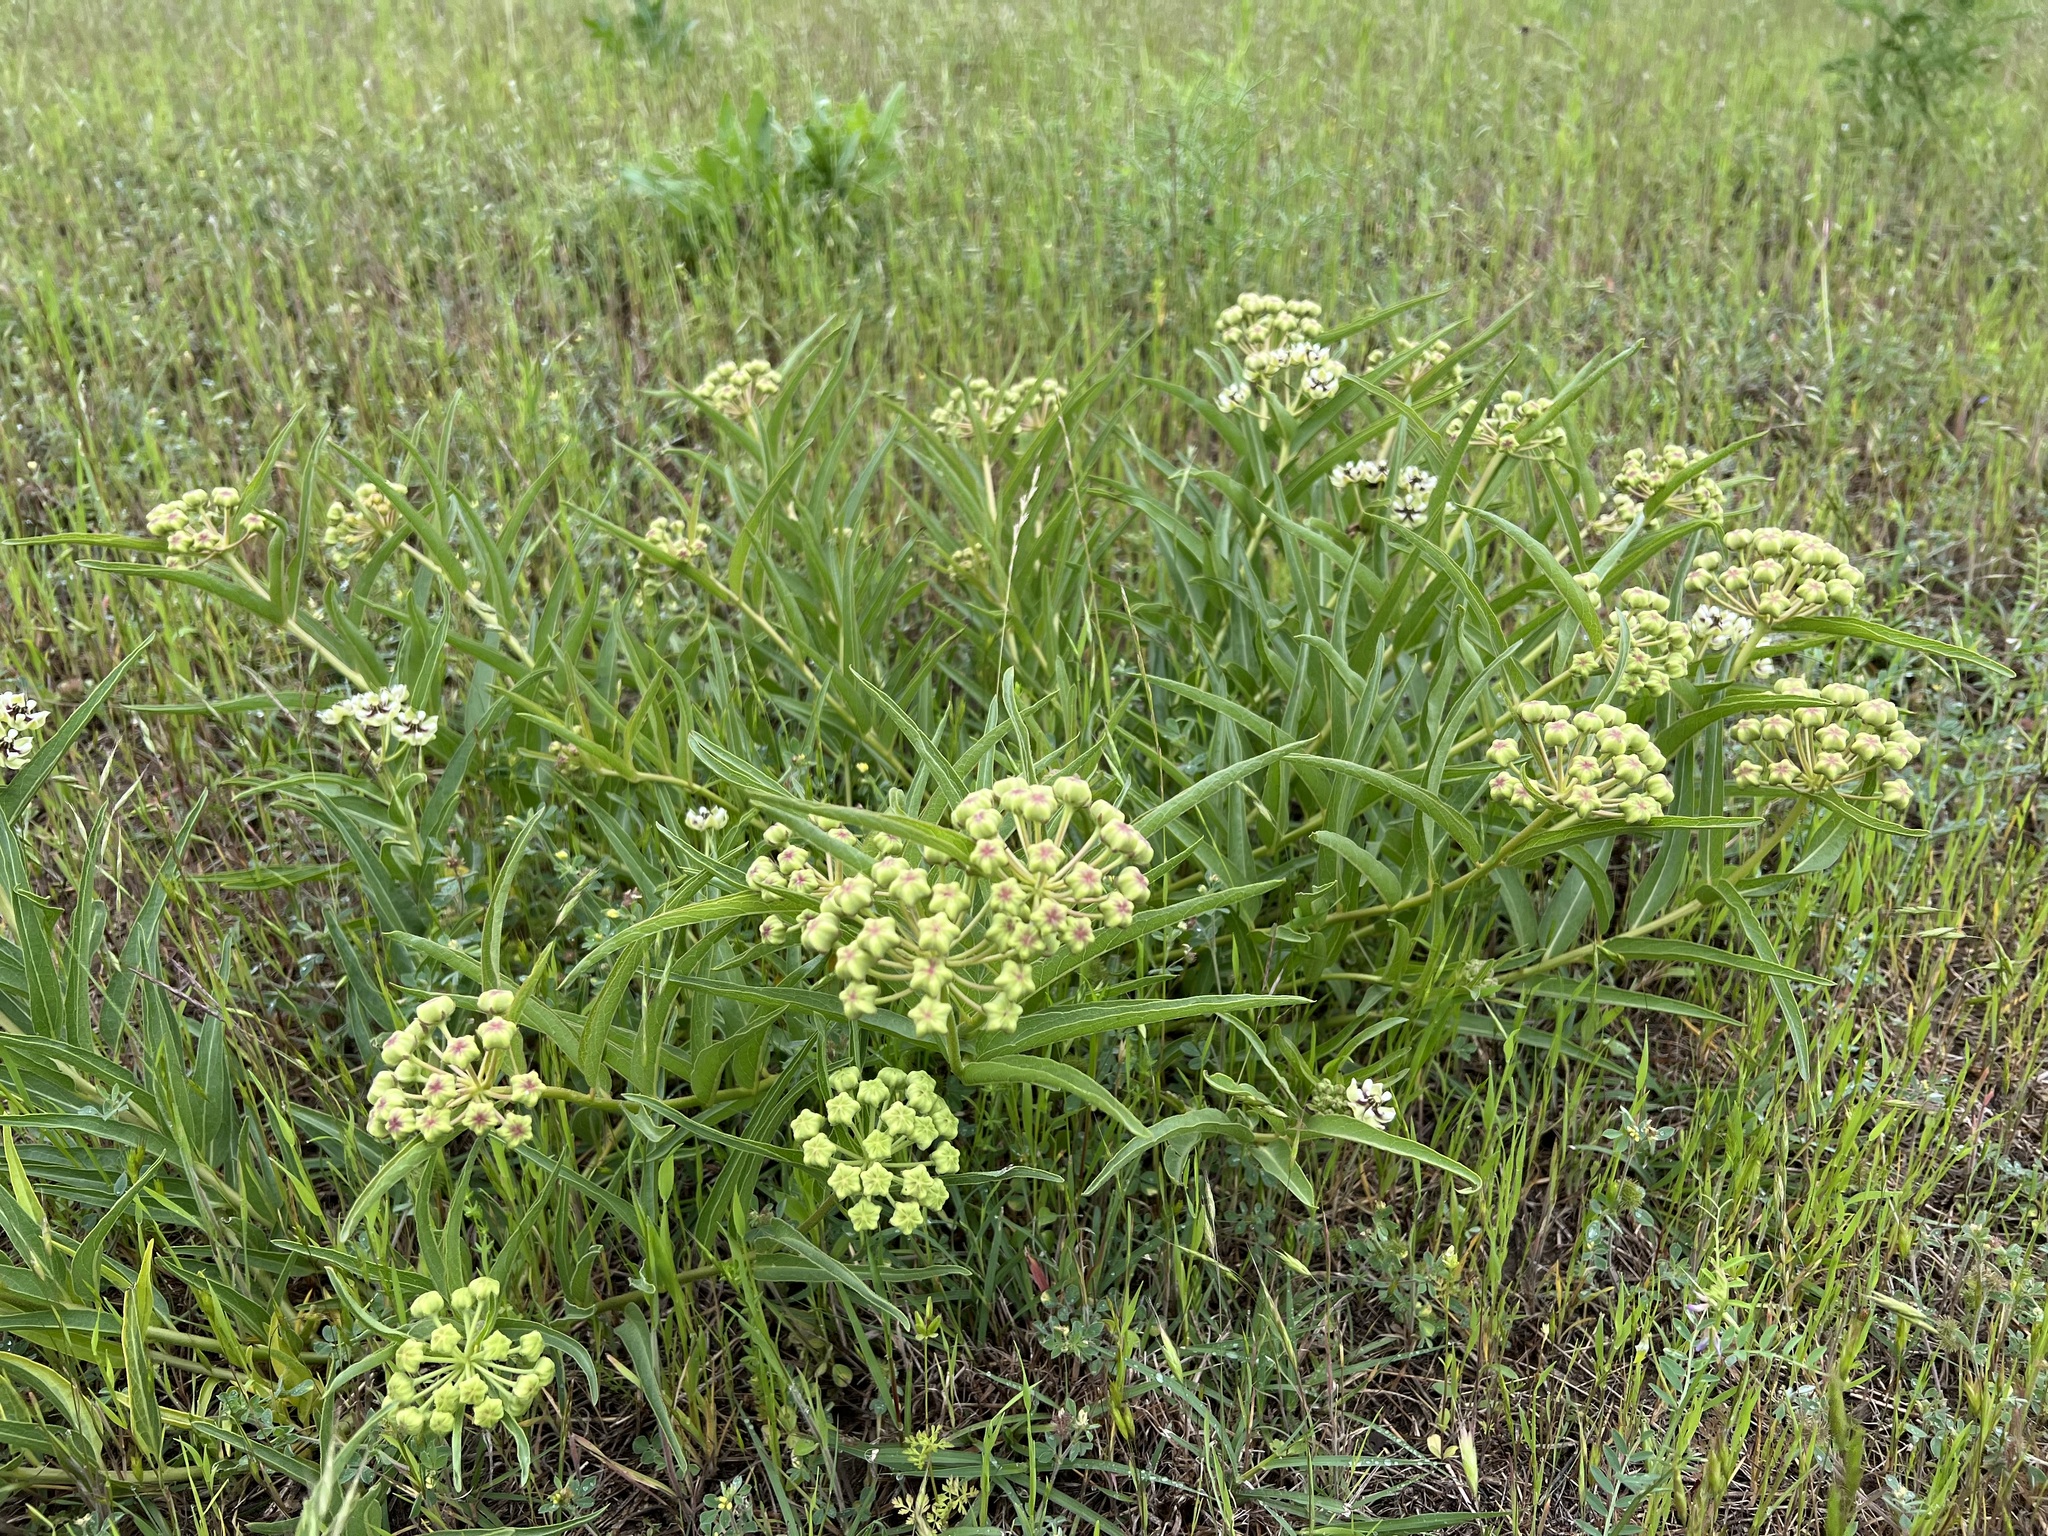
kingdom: Plantae
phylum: Tracheophyta
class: Magnoliopsida
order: Gentianales
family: Apocynaceae
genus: Asclepias
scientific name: Asclepias asperula
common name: Antelope horns
